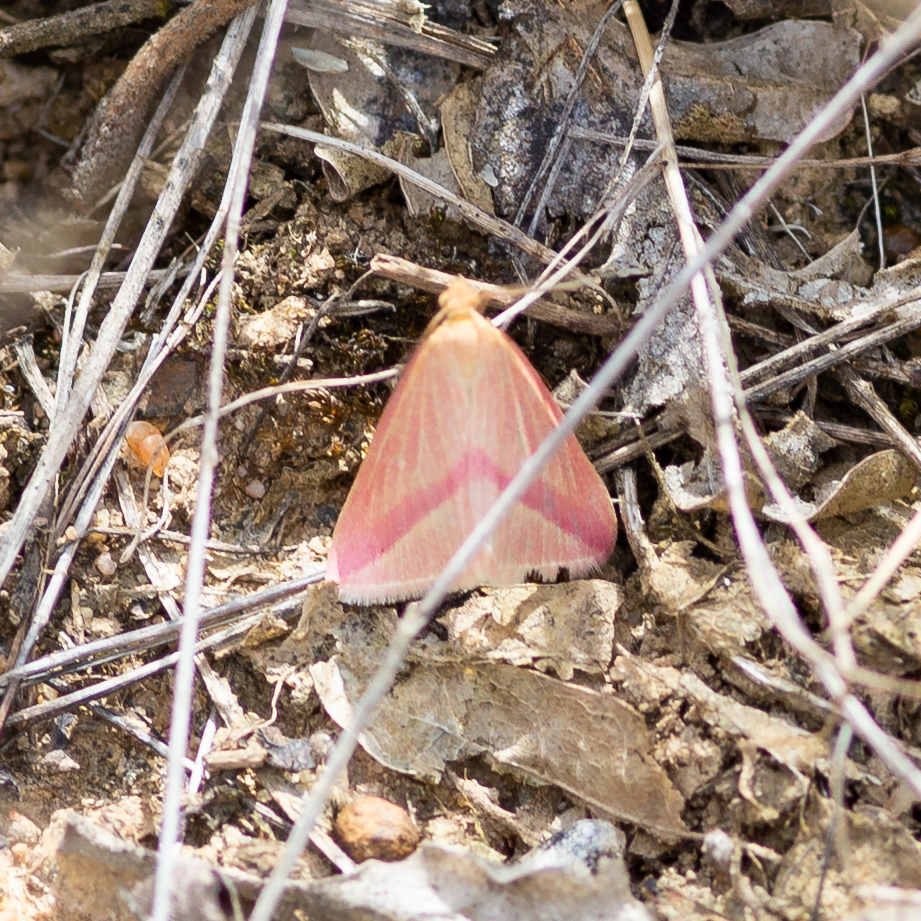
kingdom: Animalia
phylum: Arthropoda
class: Insecta
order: Lepidoptera
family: Geometridae
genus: Rhodometra
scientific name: Rhodometra sacraria
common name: Vestal
